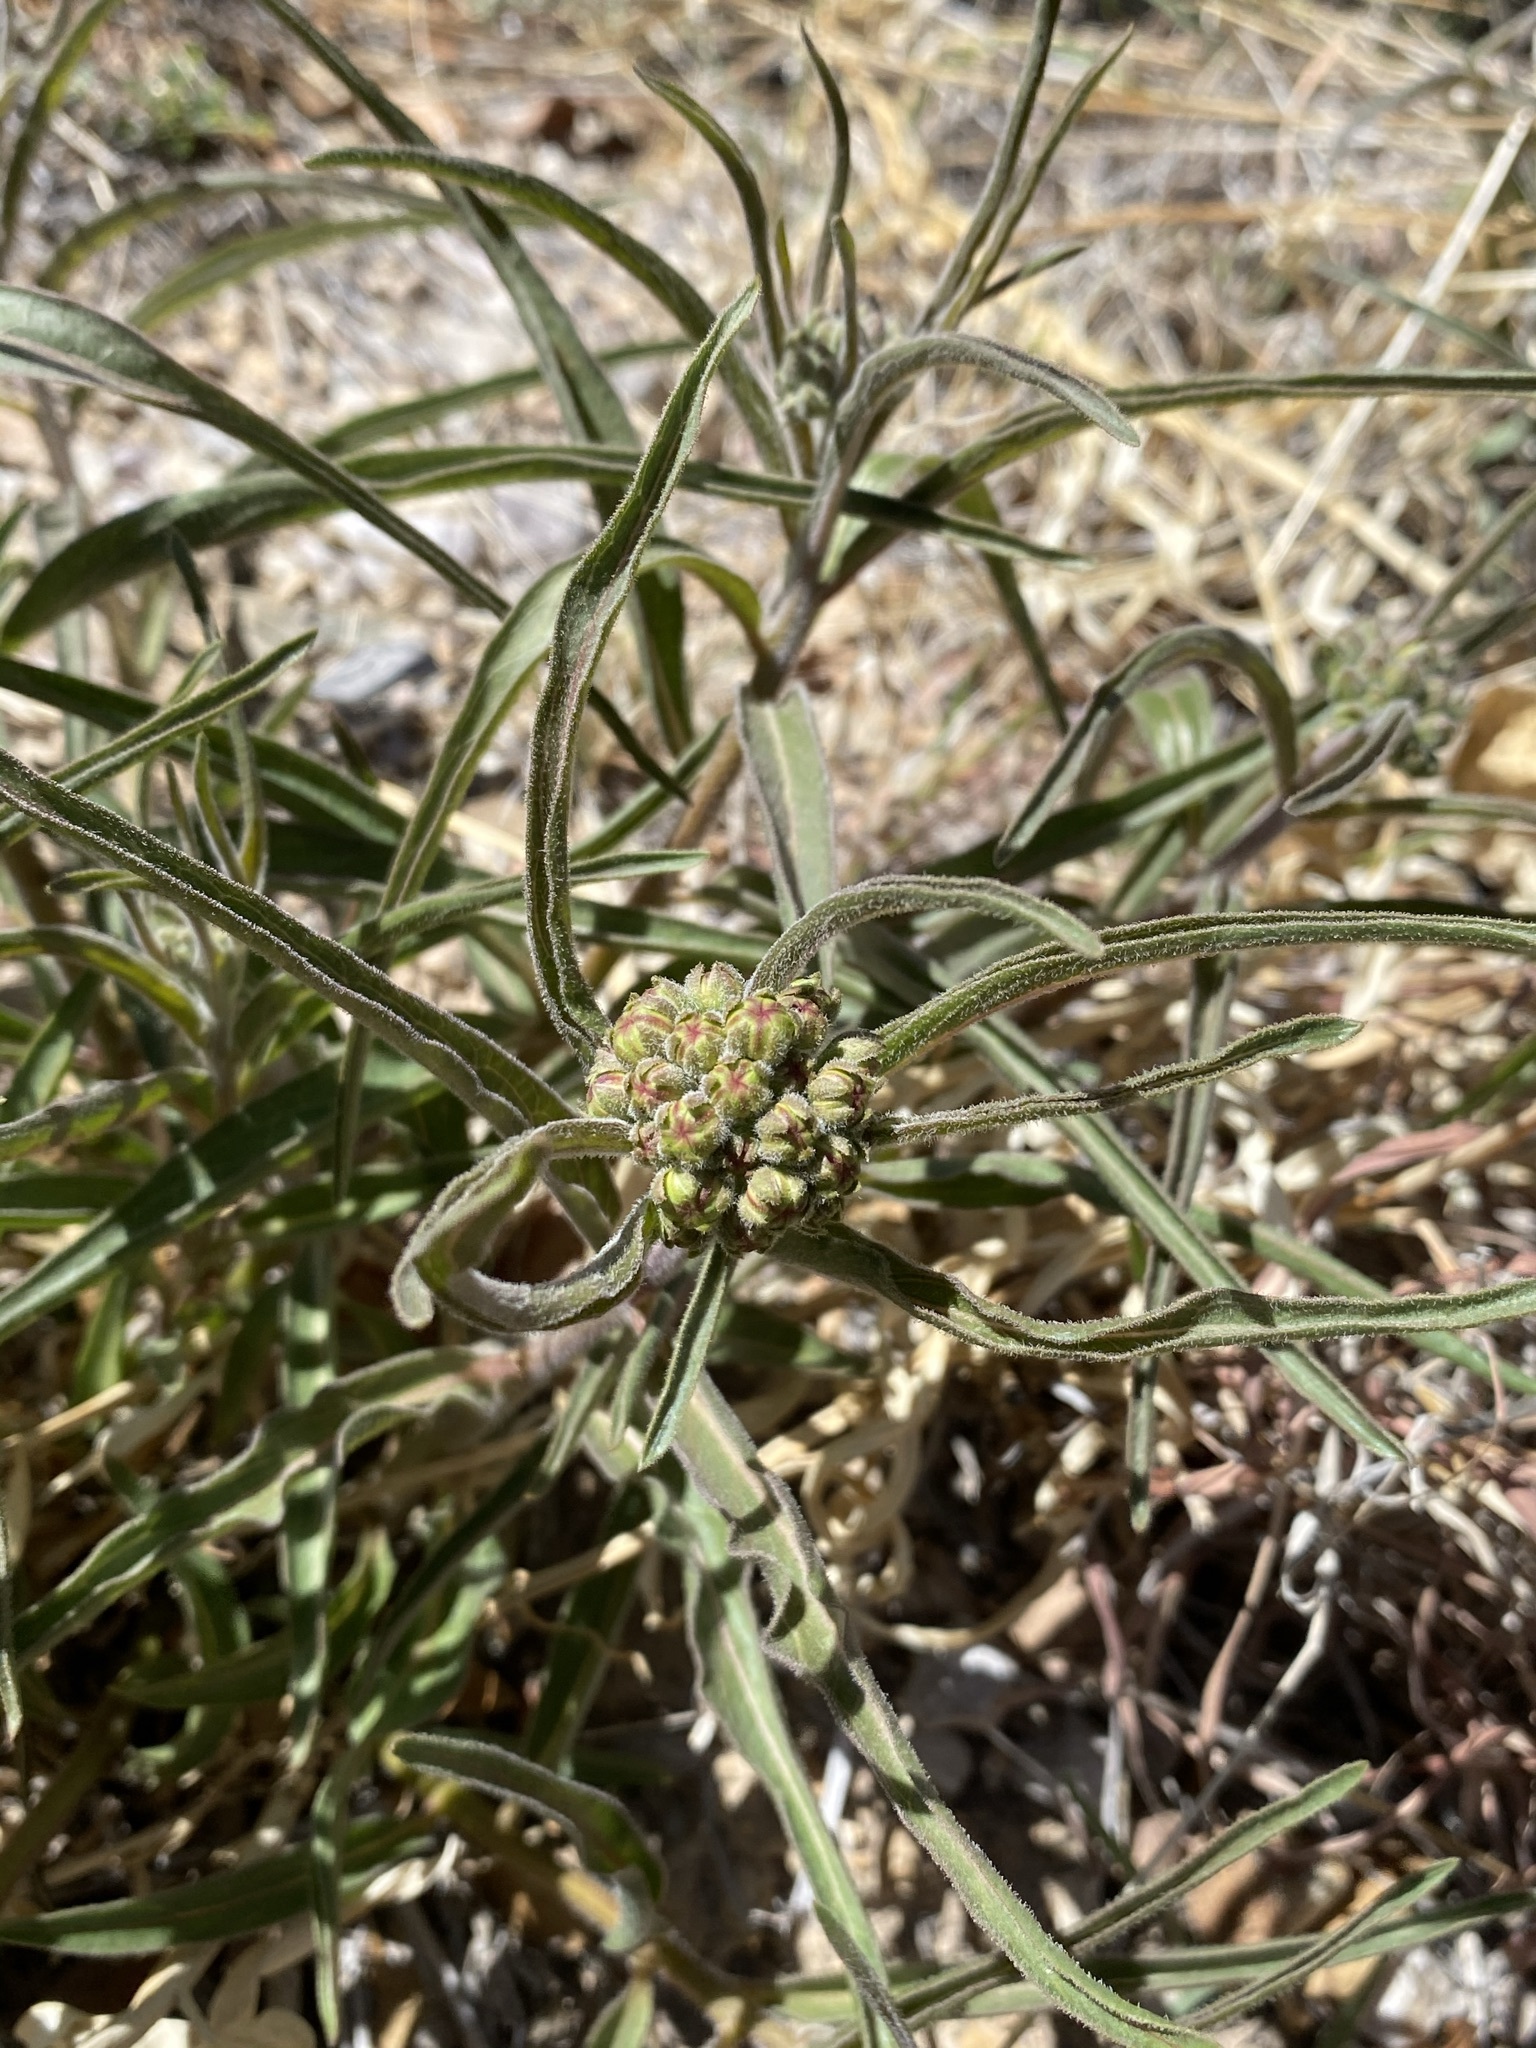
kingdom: Plantae
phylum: Tracheophyta
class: Magnoliopsida
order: Gentianales
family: Apocynaceae
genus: Asclepias
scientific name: Asclepias asperula
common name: Antelope horns
